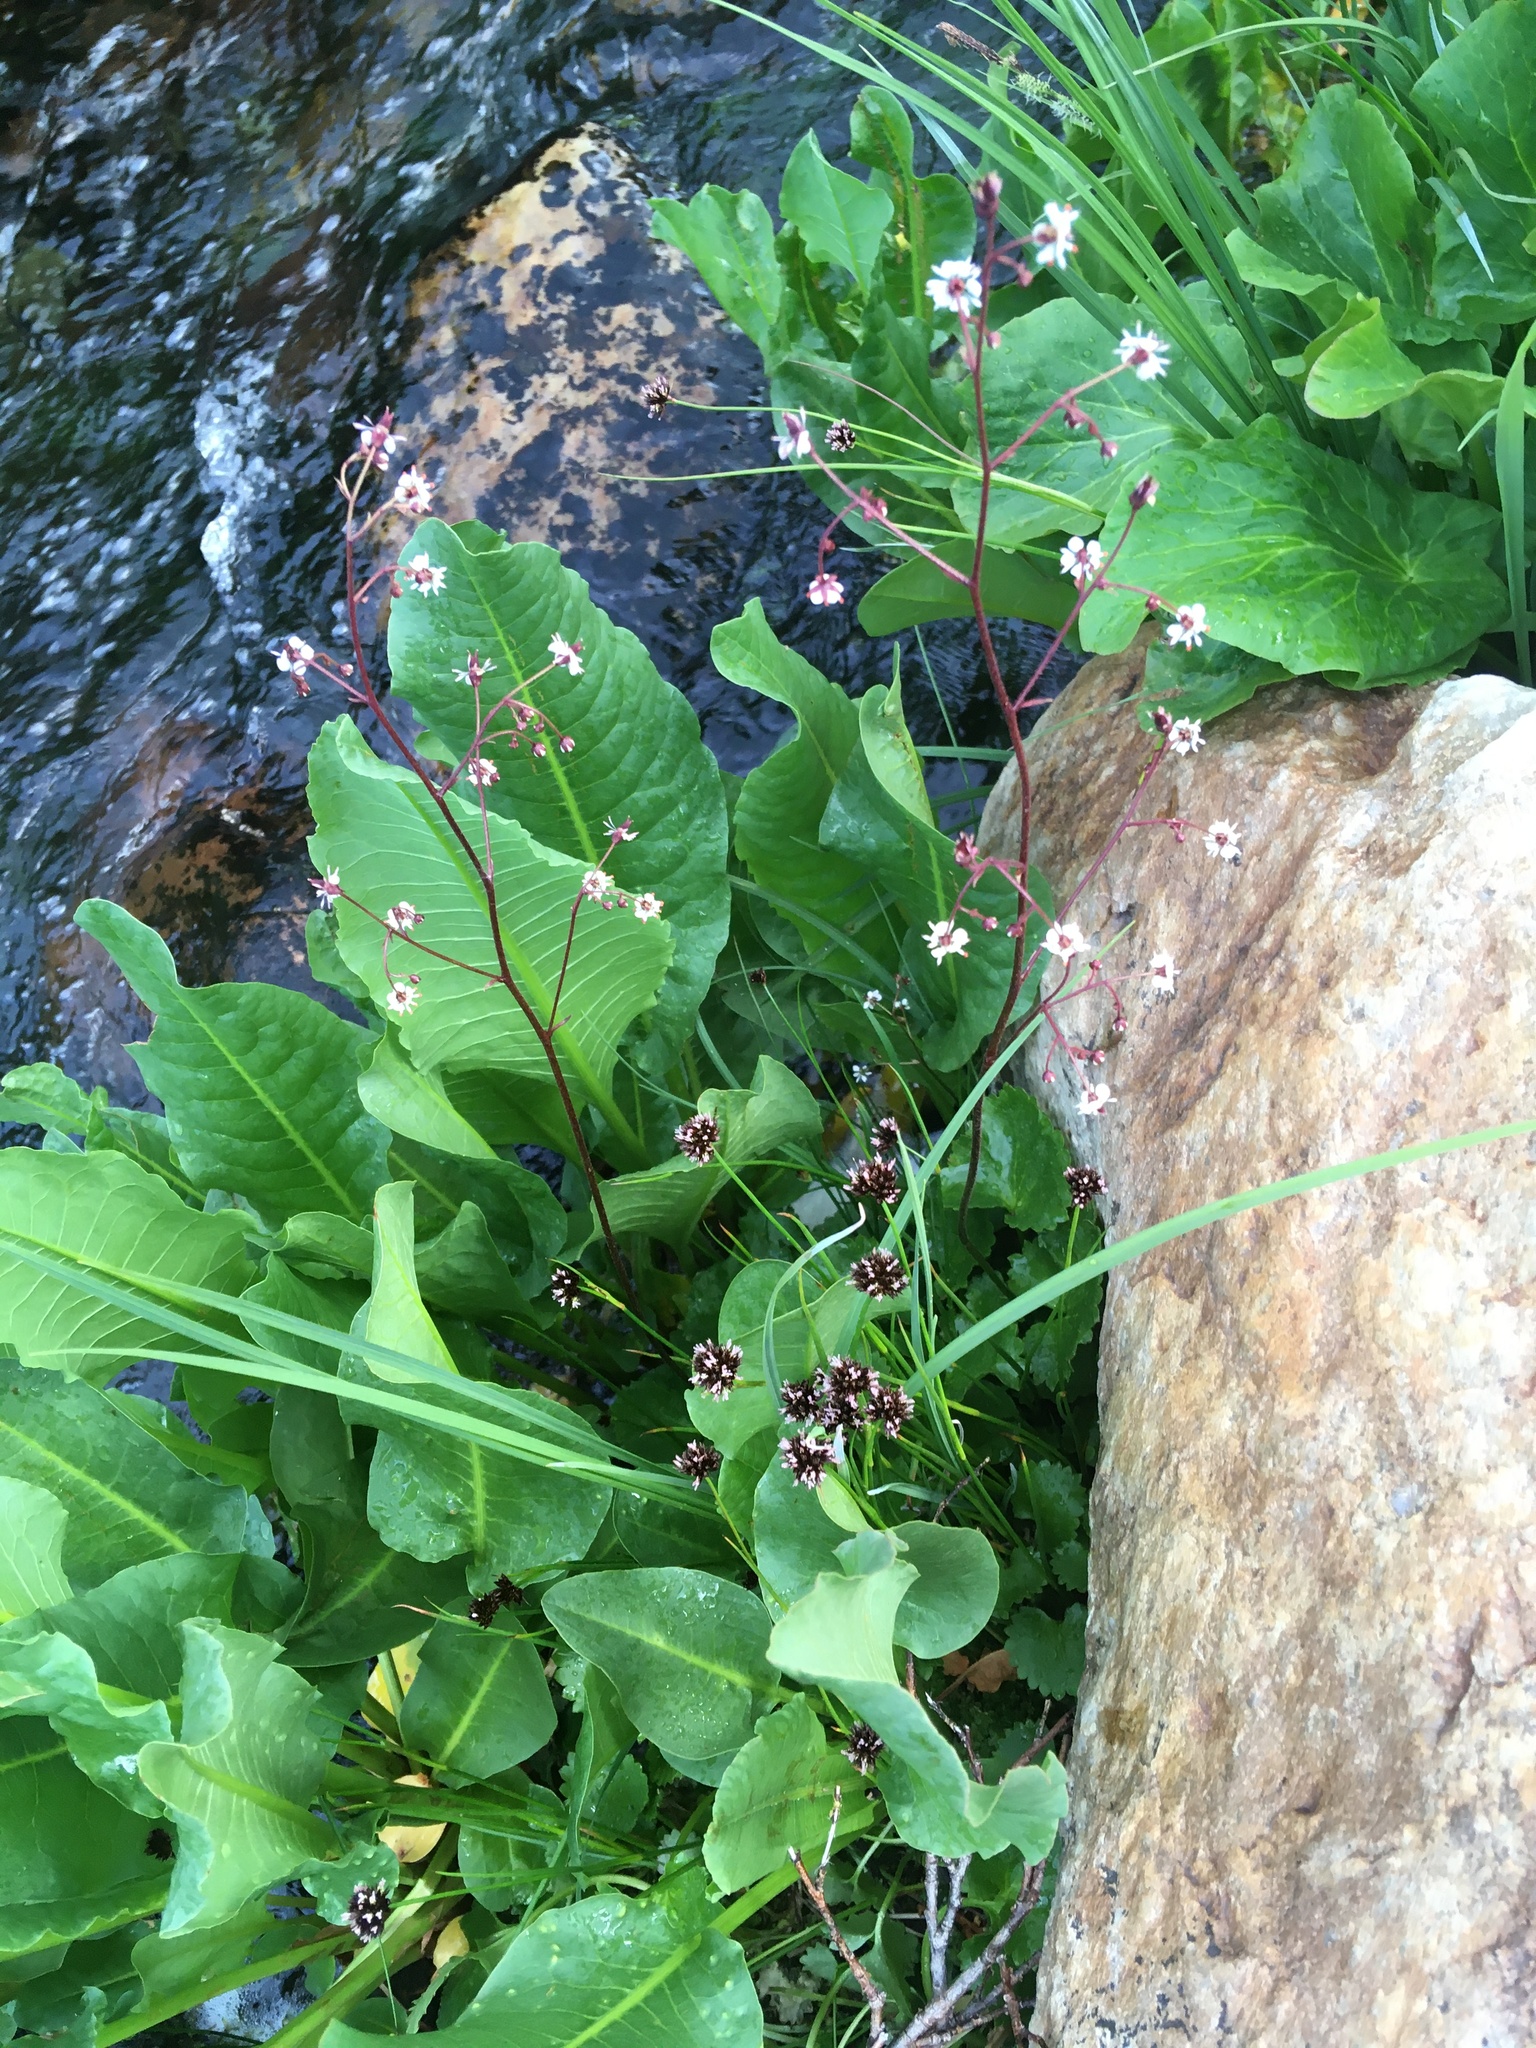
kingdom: Plantae
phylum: Tracheophyta
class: Magnoliopsida
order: Saxifragales
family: Saxifragaceae
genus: Micranthes
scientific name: Micranthes odontoloma
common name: Brook saxifrage
